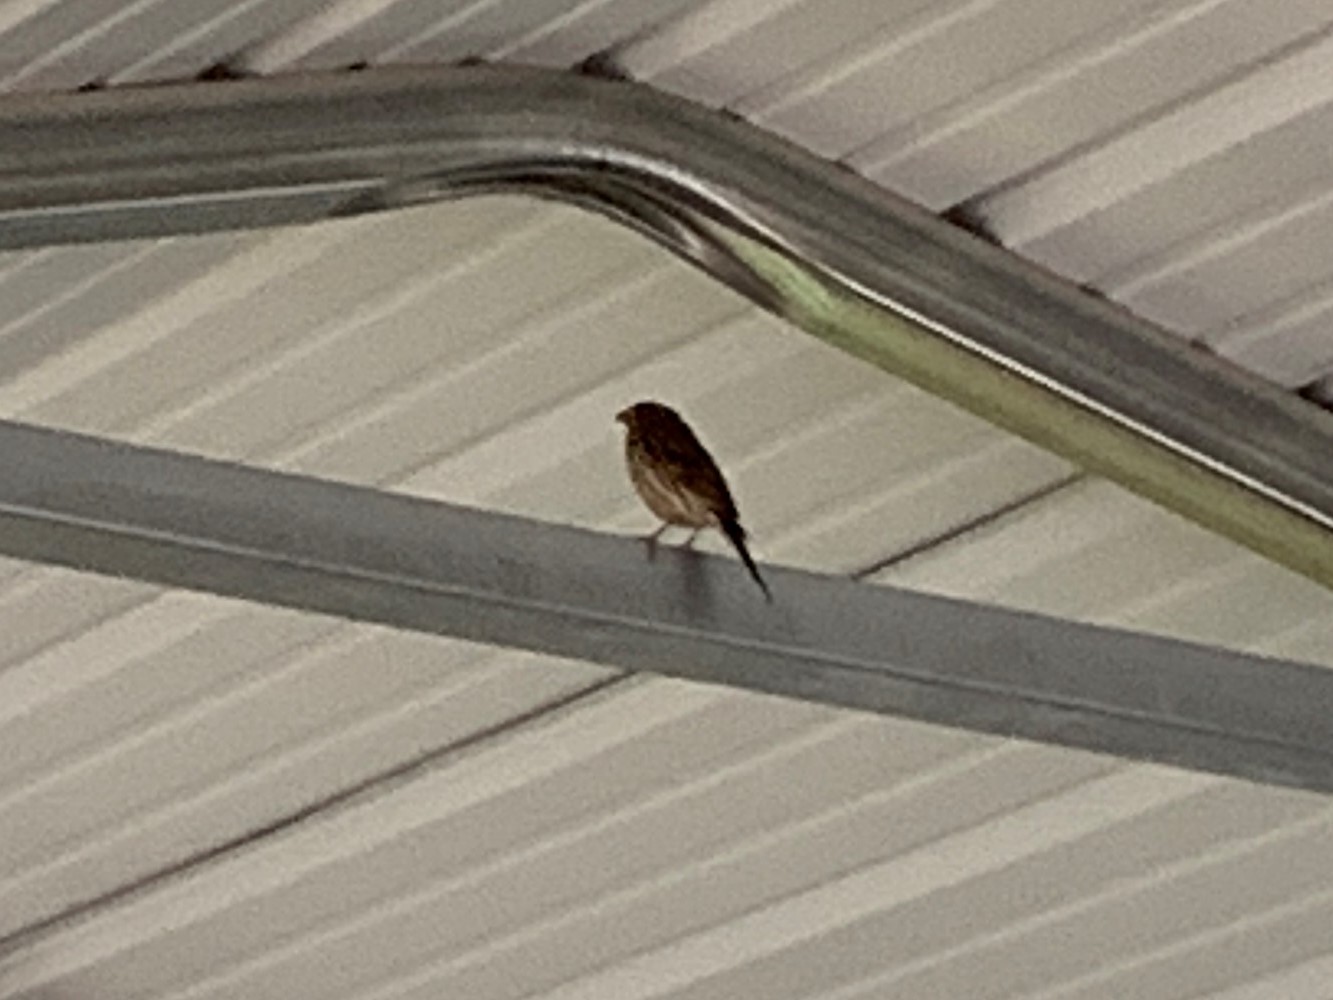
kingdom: Animalia
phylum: Chordata
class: Aves
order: Passeriformes
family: Fringillidae
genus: Haemorhous
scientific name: Haemorhous mexicanus
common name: House finch
